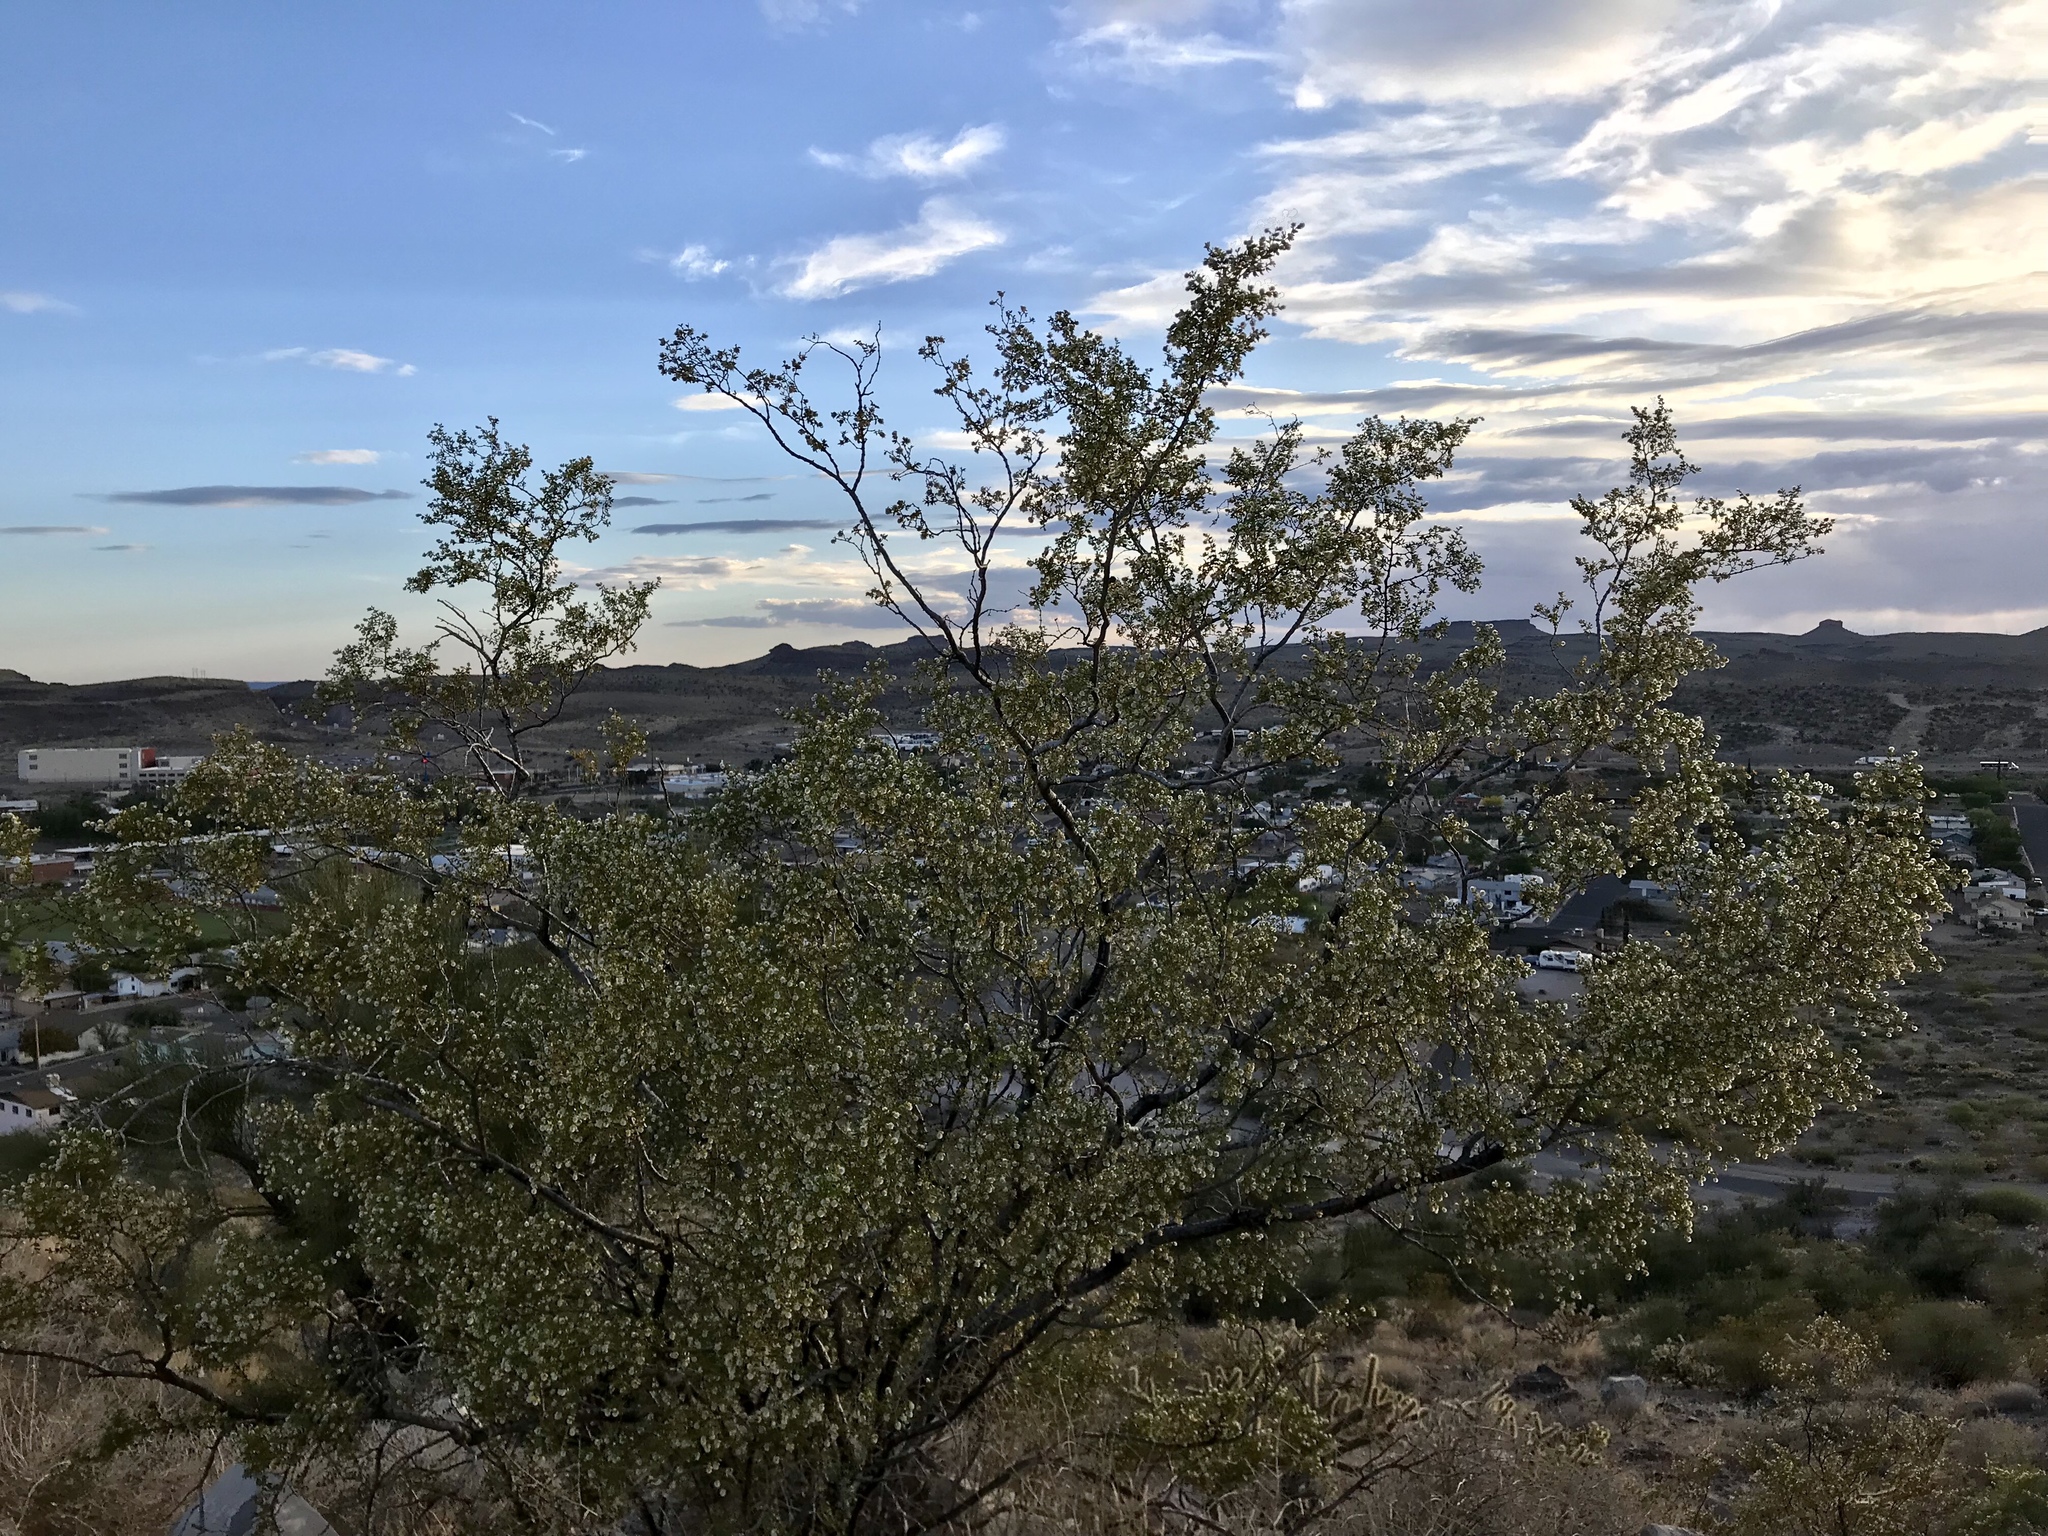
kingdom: Plantae
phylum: Tracheophyta
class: Magnoliopsida
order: Zygophyllales
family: Zygophyllaceae
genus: Larrea
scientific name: Larrea tridentata
